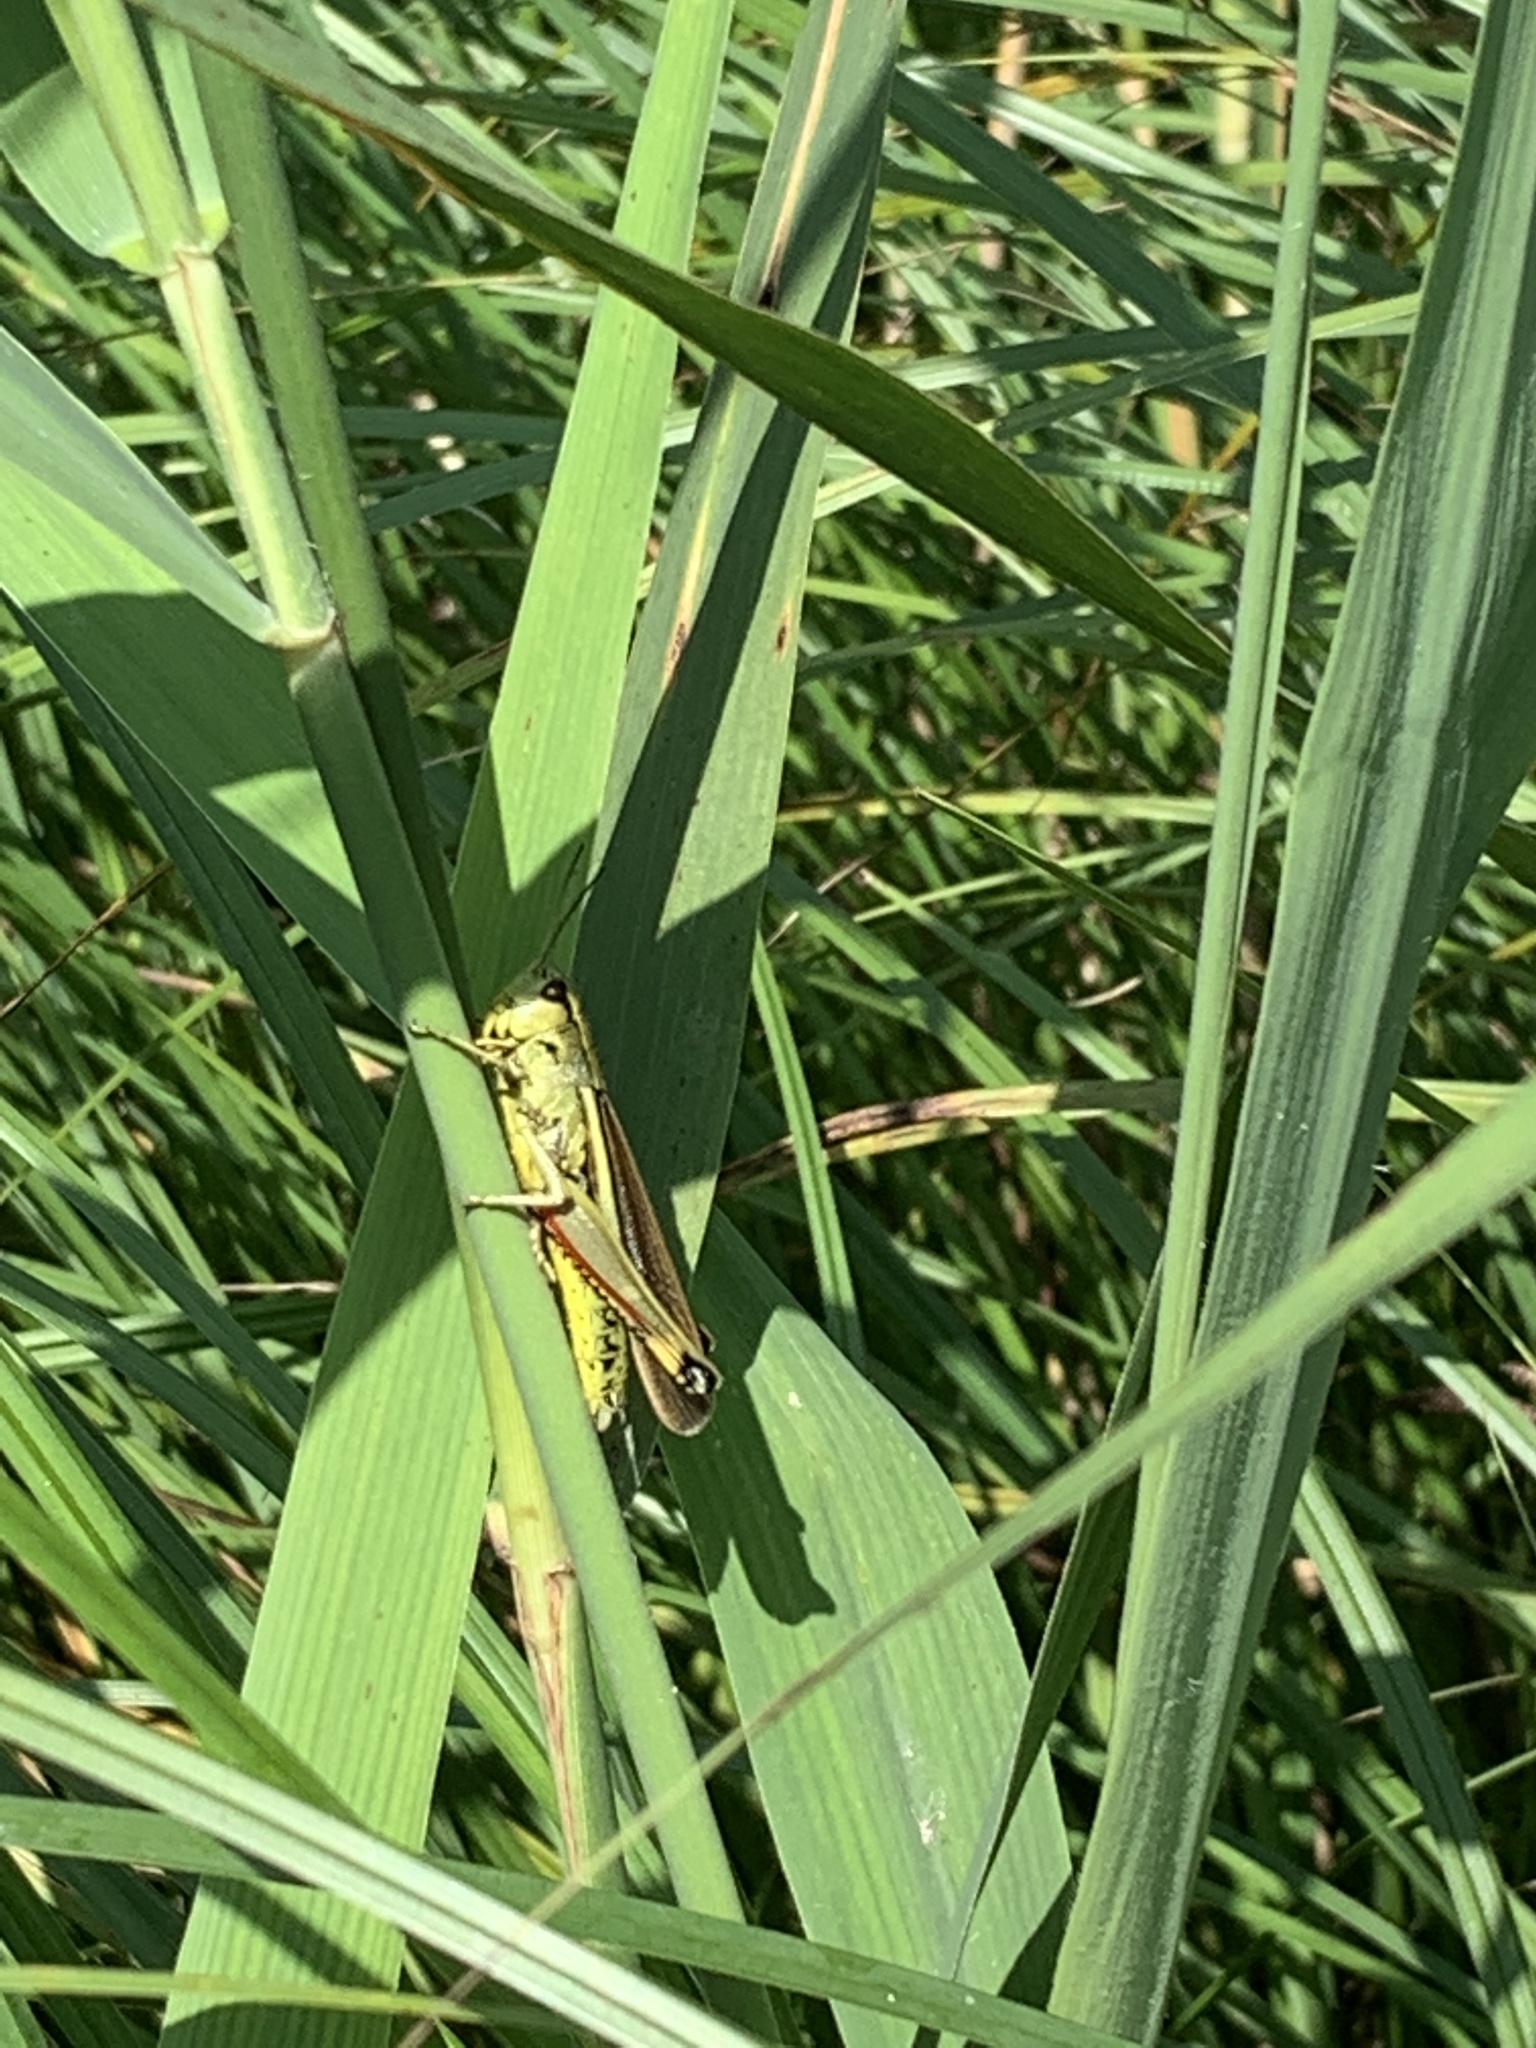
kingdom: Animalia
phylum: Arthropoda
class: Insecta
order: Orthoptera
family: Acrididae
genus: Stethophyma
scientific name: Stethophyma grossum
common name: Large marsh grasshopper
